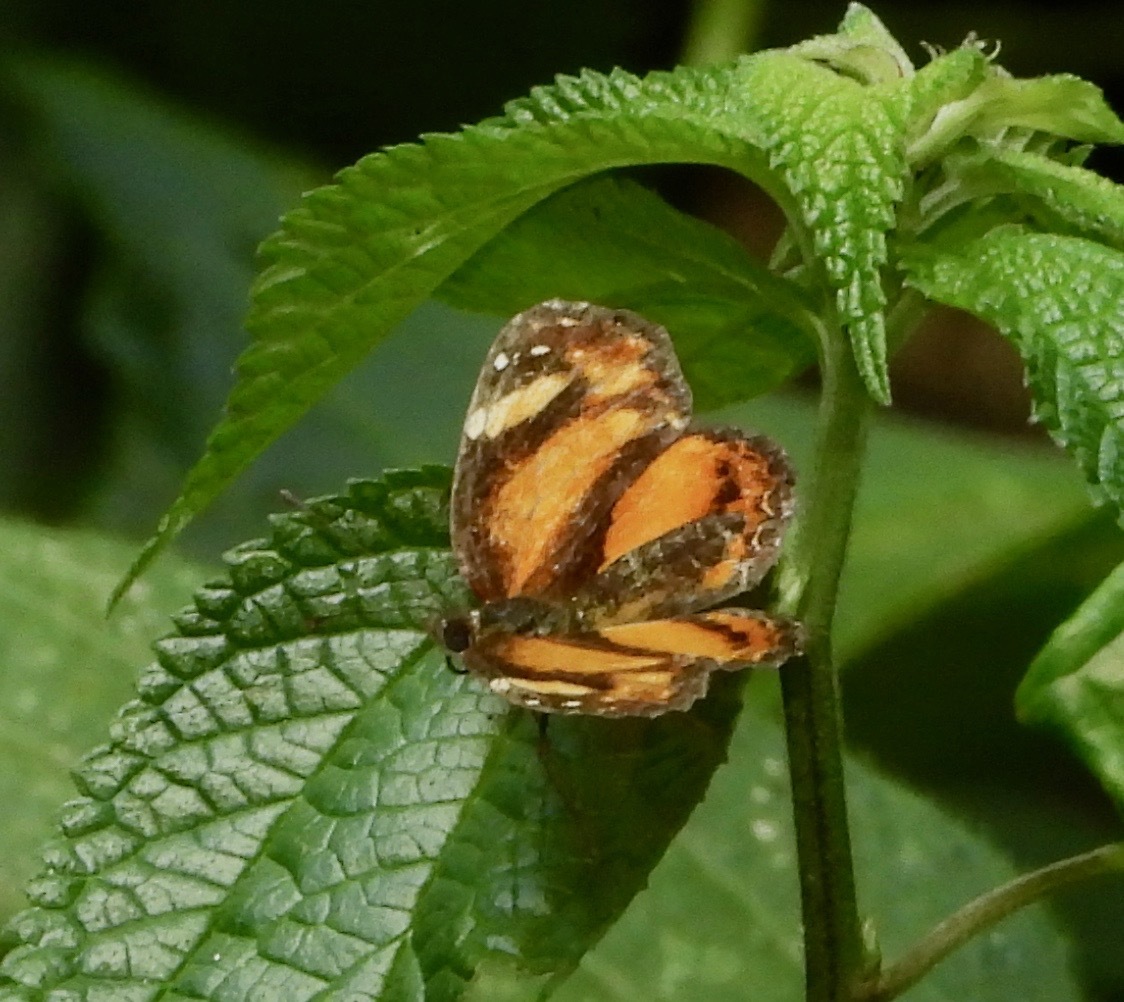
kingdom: Animalia
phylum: Arthropoda
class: Insecta
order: Lepidoptera
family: Nymphalidae
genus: Castilia
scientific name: Castilia eranites
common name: Smudged crescent
